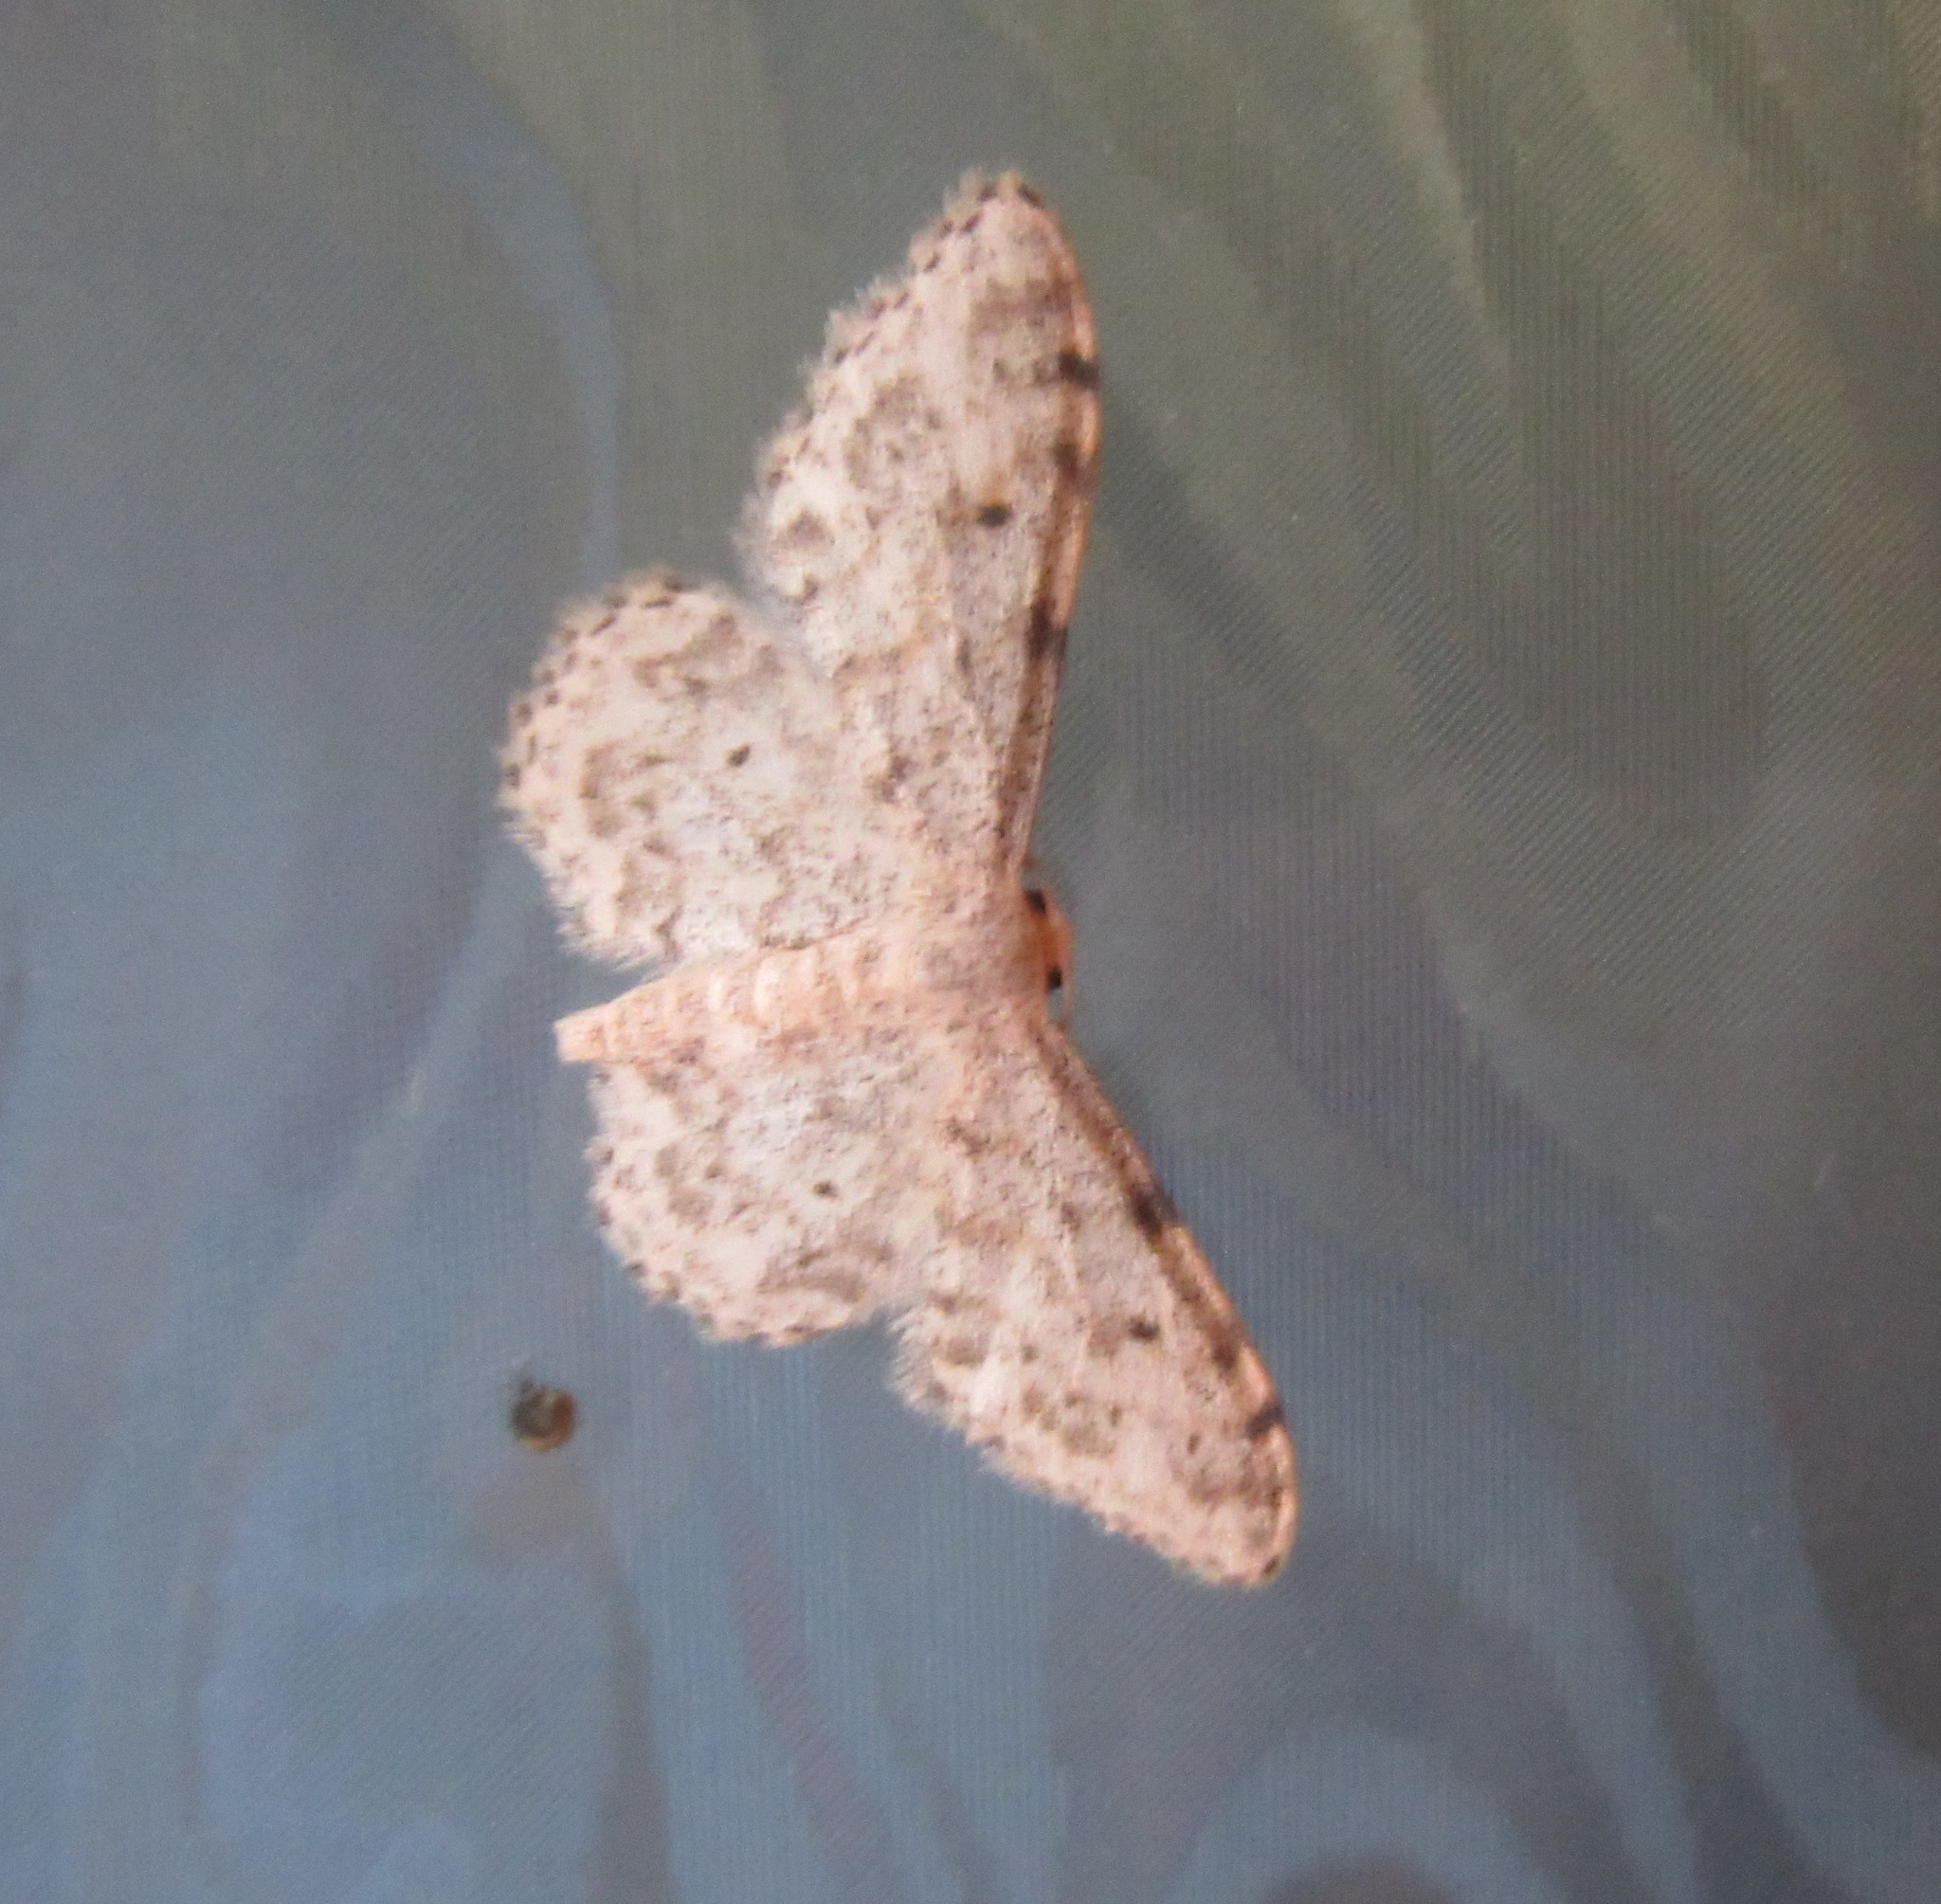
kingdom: Animalia
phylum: Arthropoda
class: Insecta
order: Lepidoptera
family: Geometridae
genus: Idaea
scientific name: Idaea camparia
